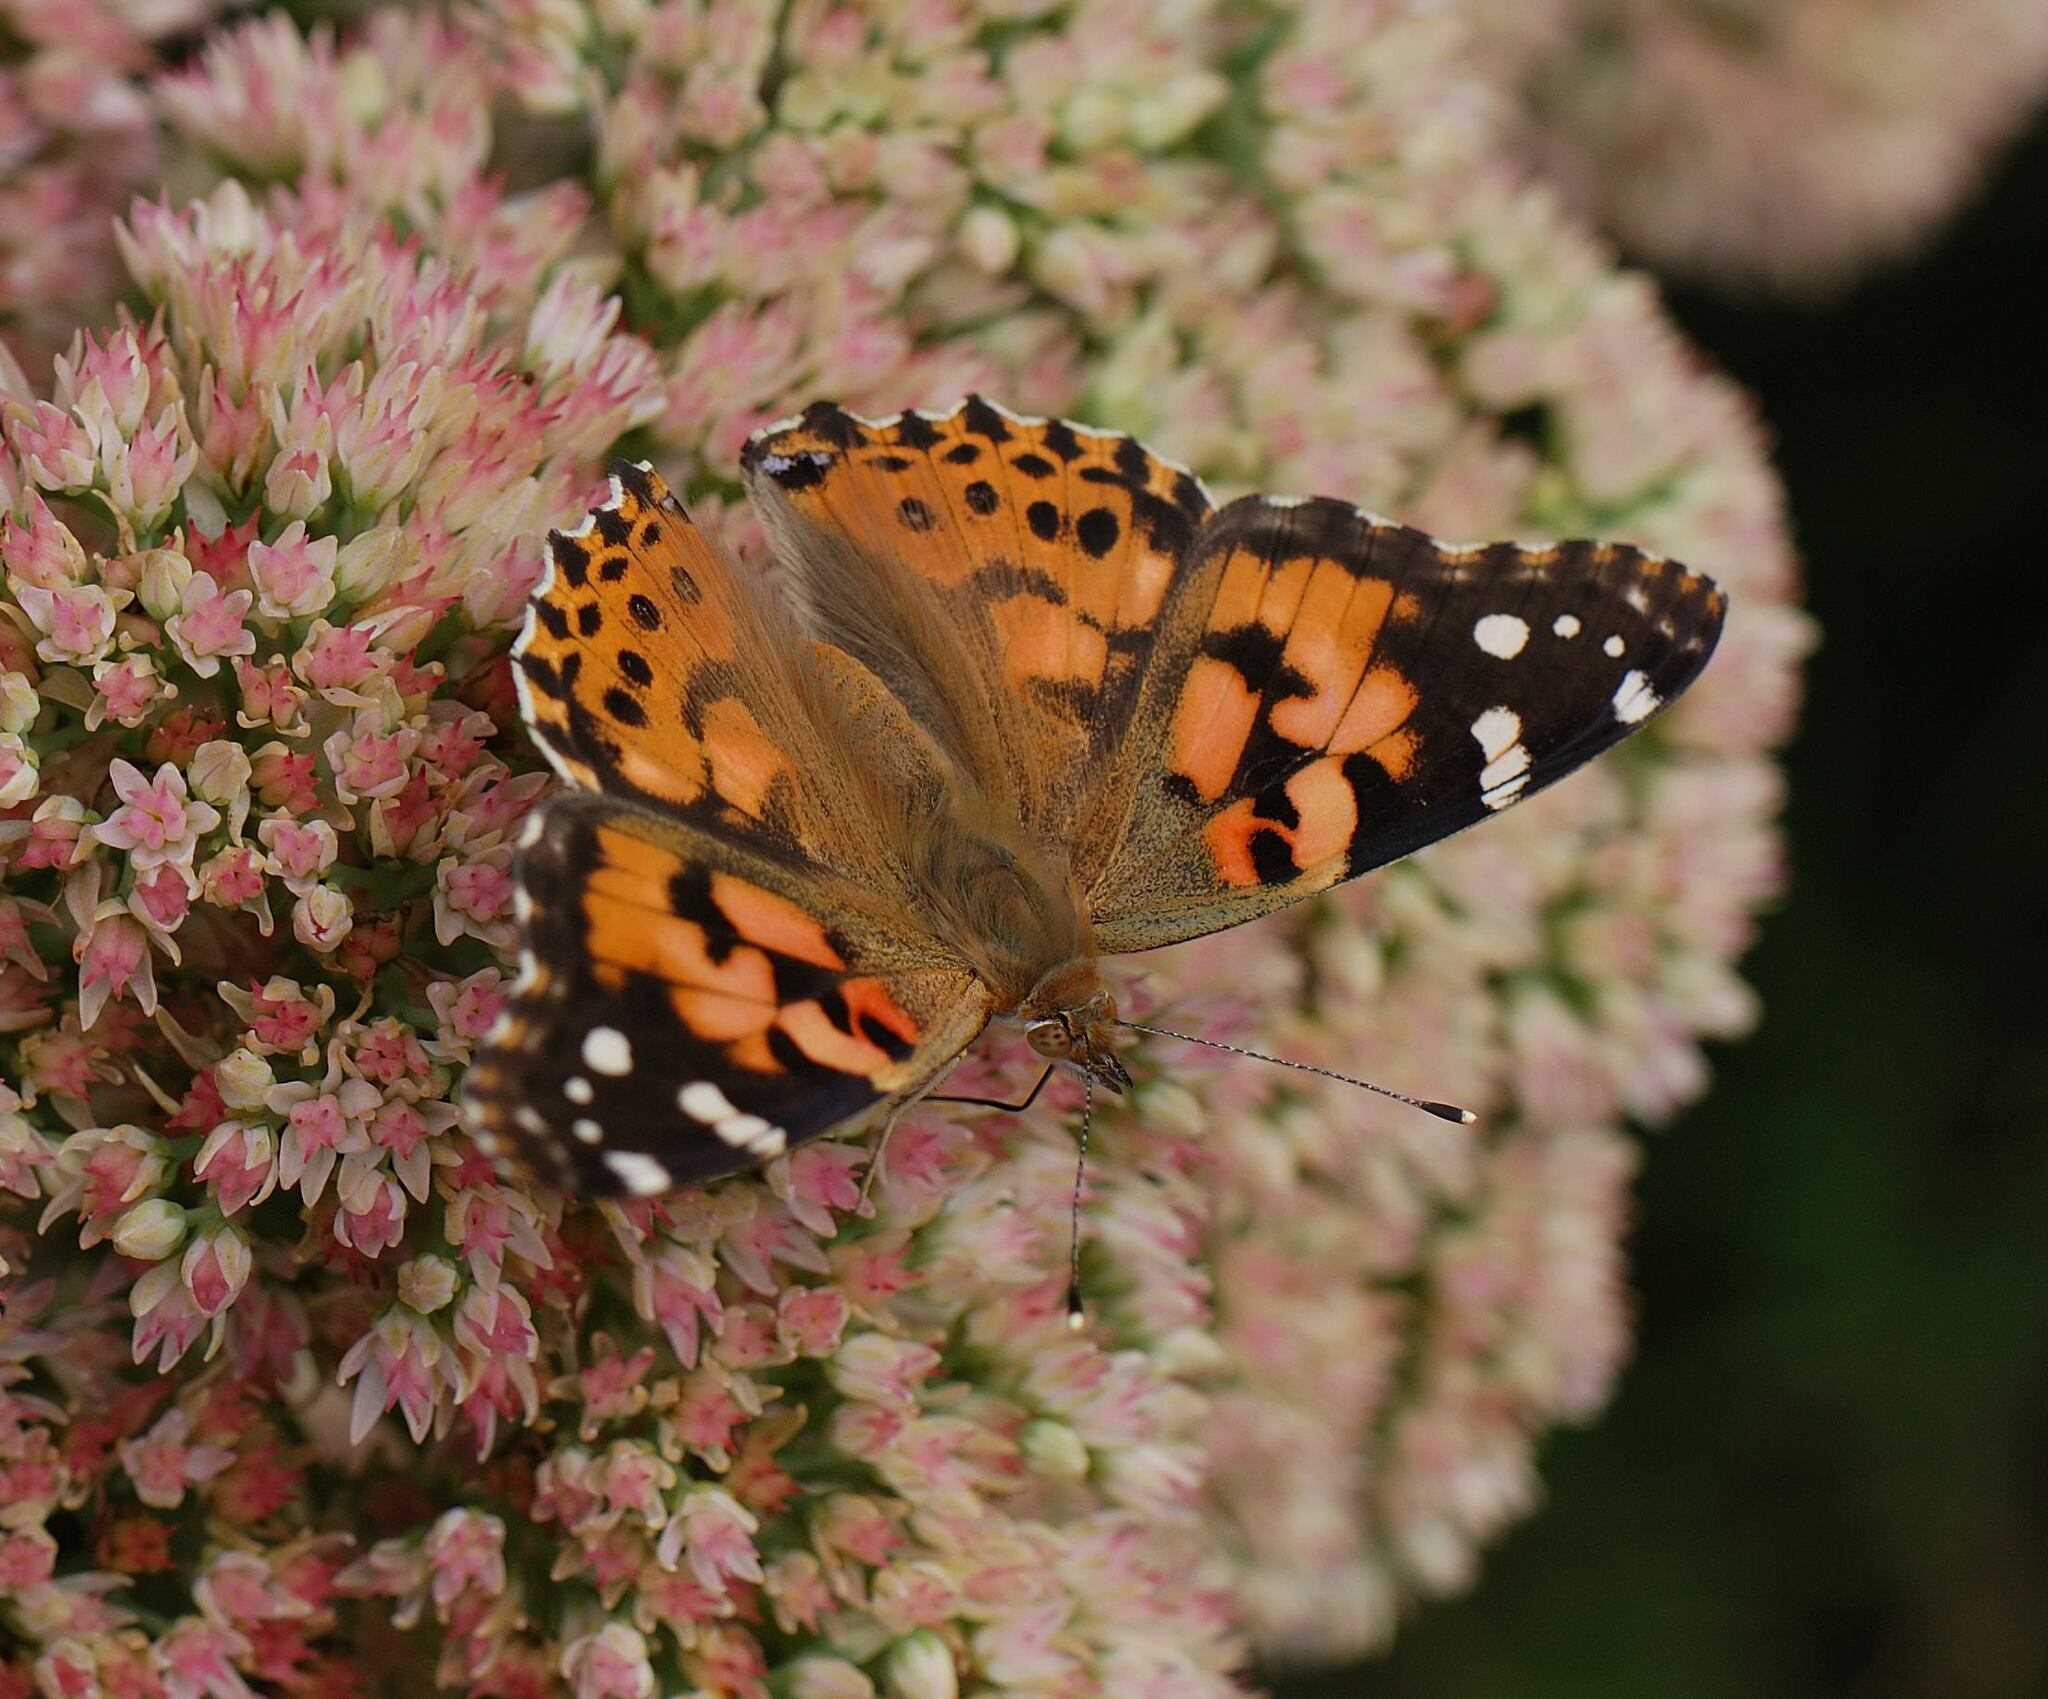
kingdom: Animalia
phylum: Arthropoda
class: Insecta
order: Lepidoptera
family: Nymphalidae
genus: Vanessa
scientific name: Vanessa cardui
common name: Painted lady
